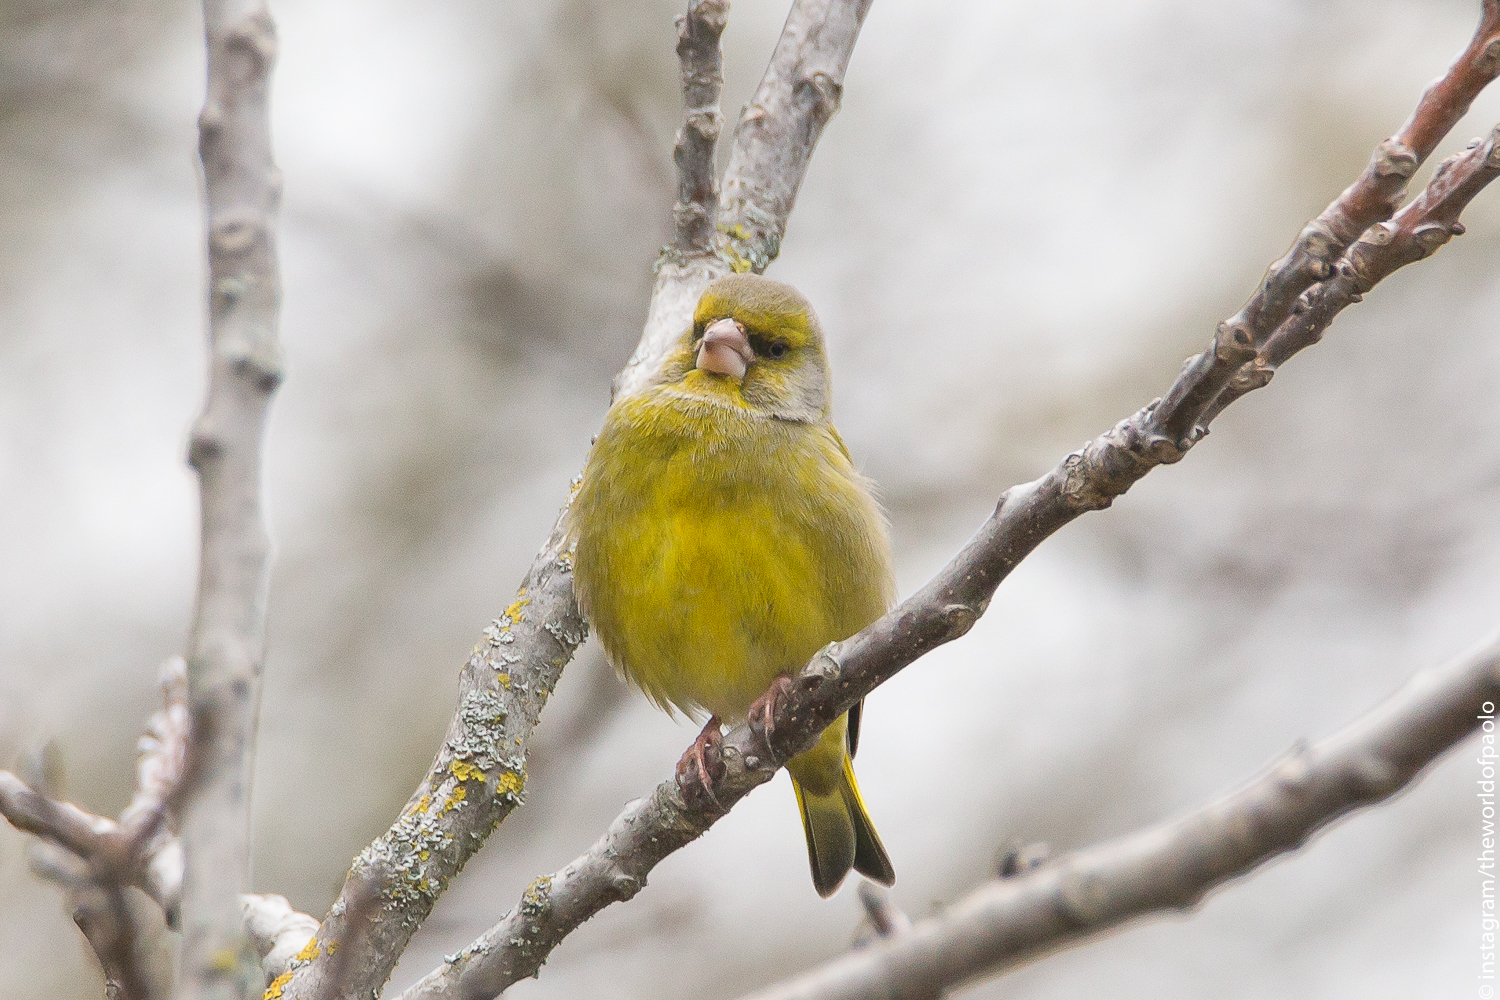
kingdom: Plantae
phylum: Tracheophyta
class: Liliopsida
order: Poales
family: Poaceae
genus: Chloris
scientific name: Chloris chloris
